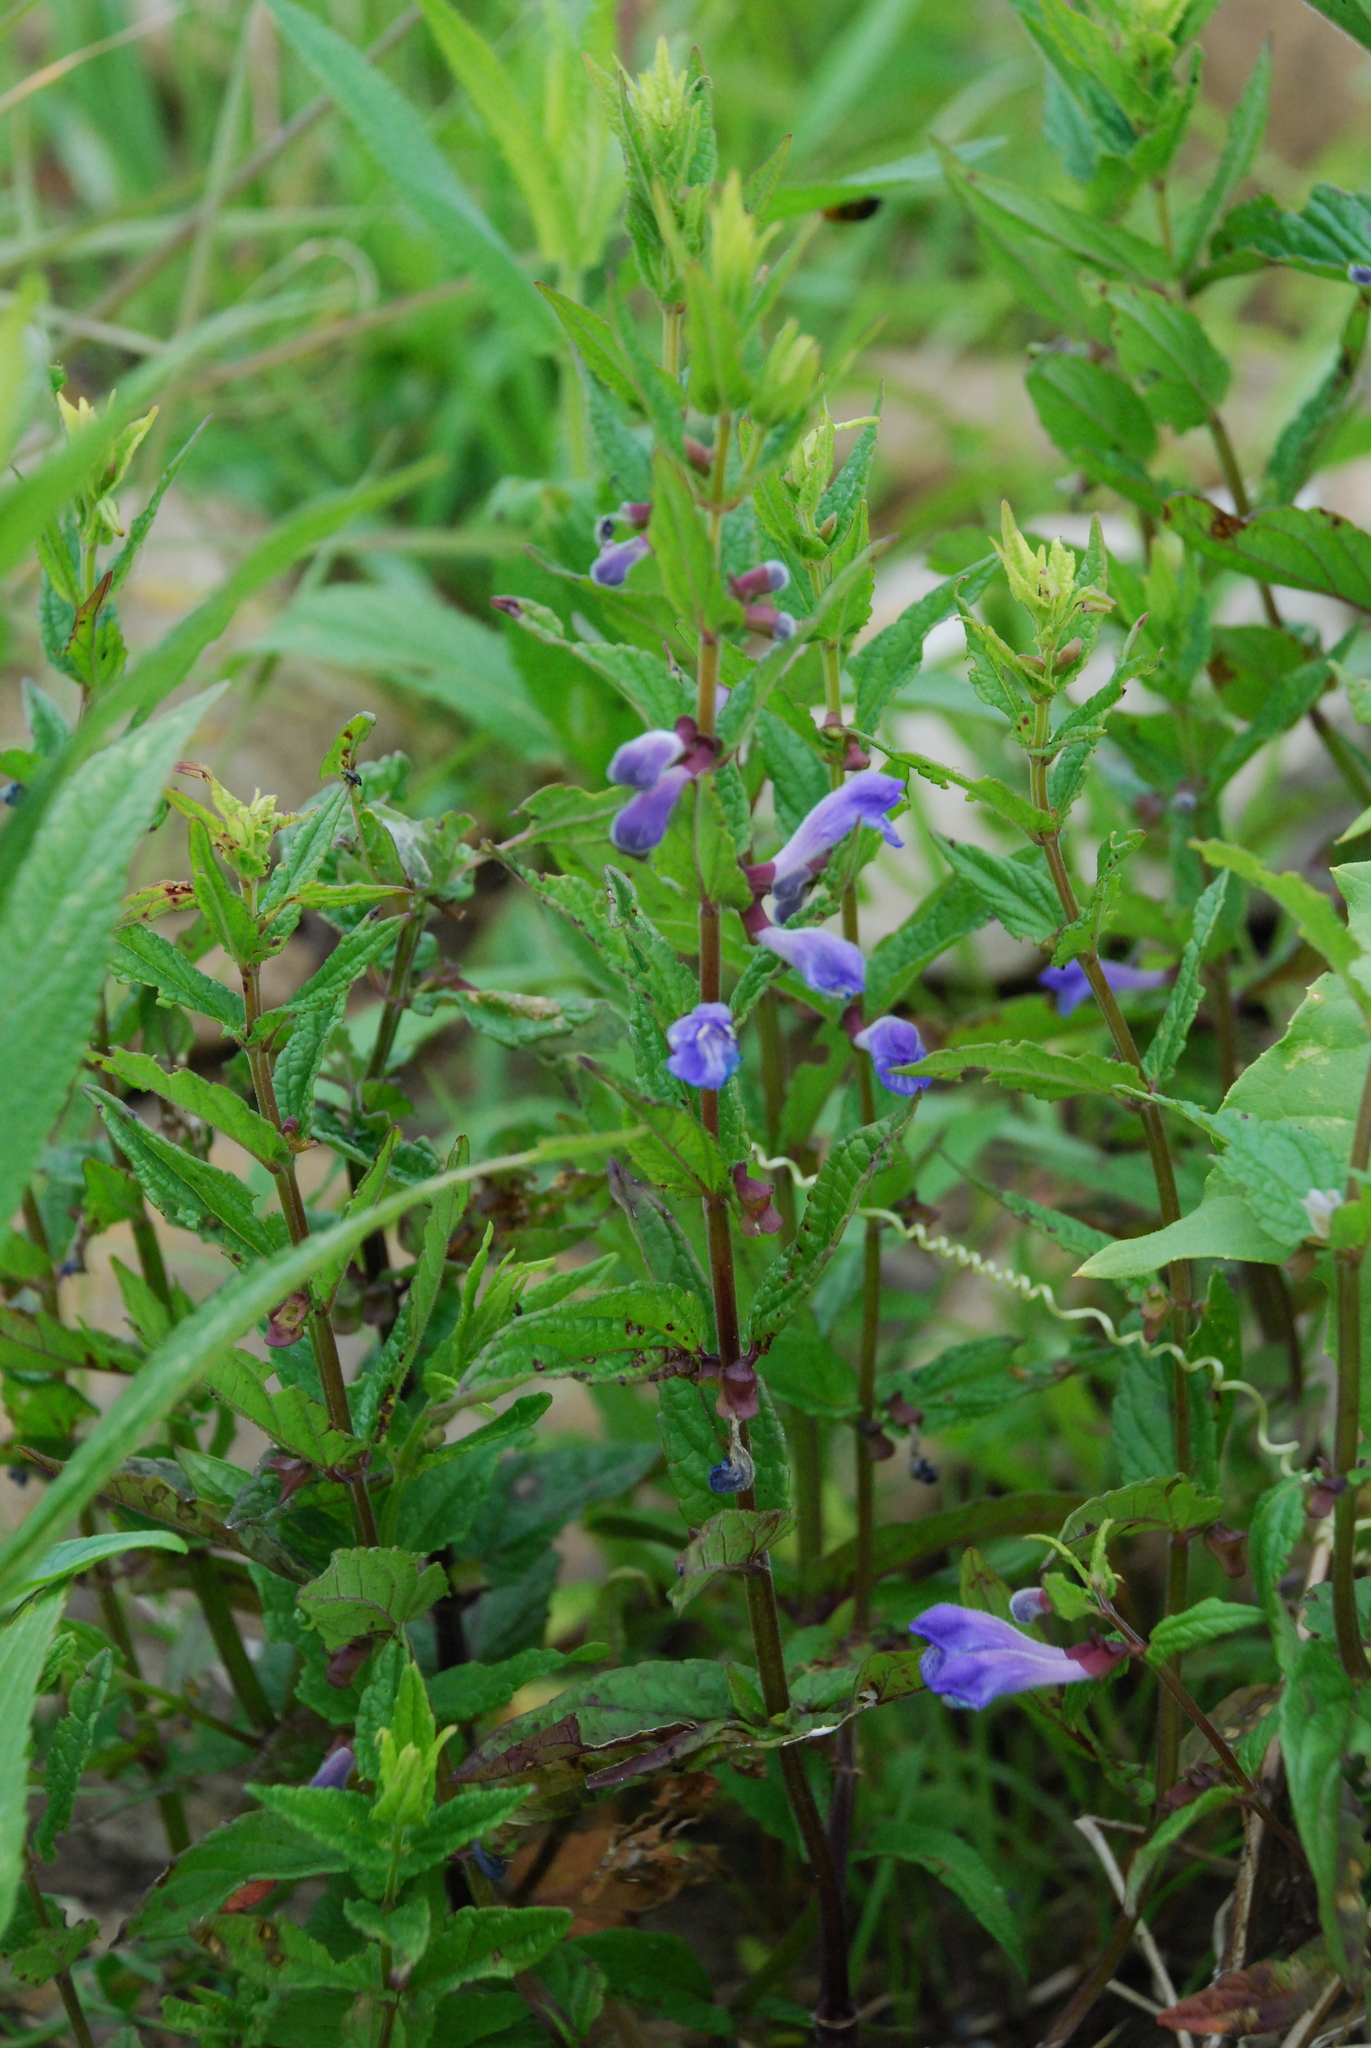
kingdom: Plantae
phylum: Tracheophyta
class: Magnoliopsida
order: Lamiales
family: Lamiaceae
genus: Scutellaria
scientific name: Scutellaria galericulata
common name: Skullcap
